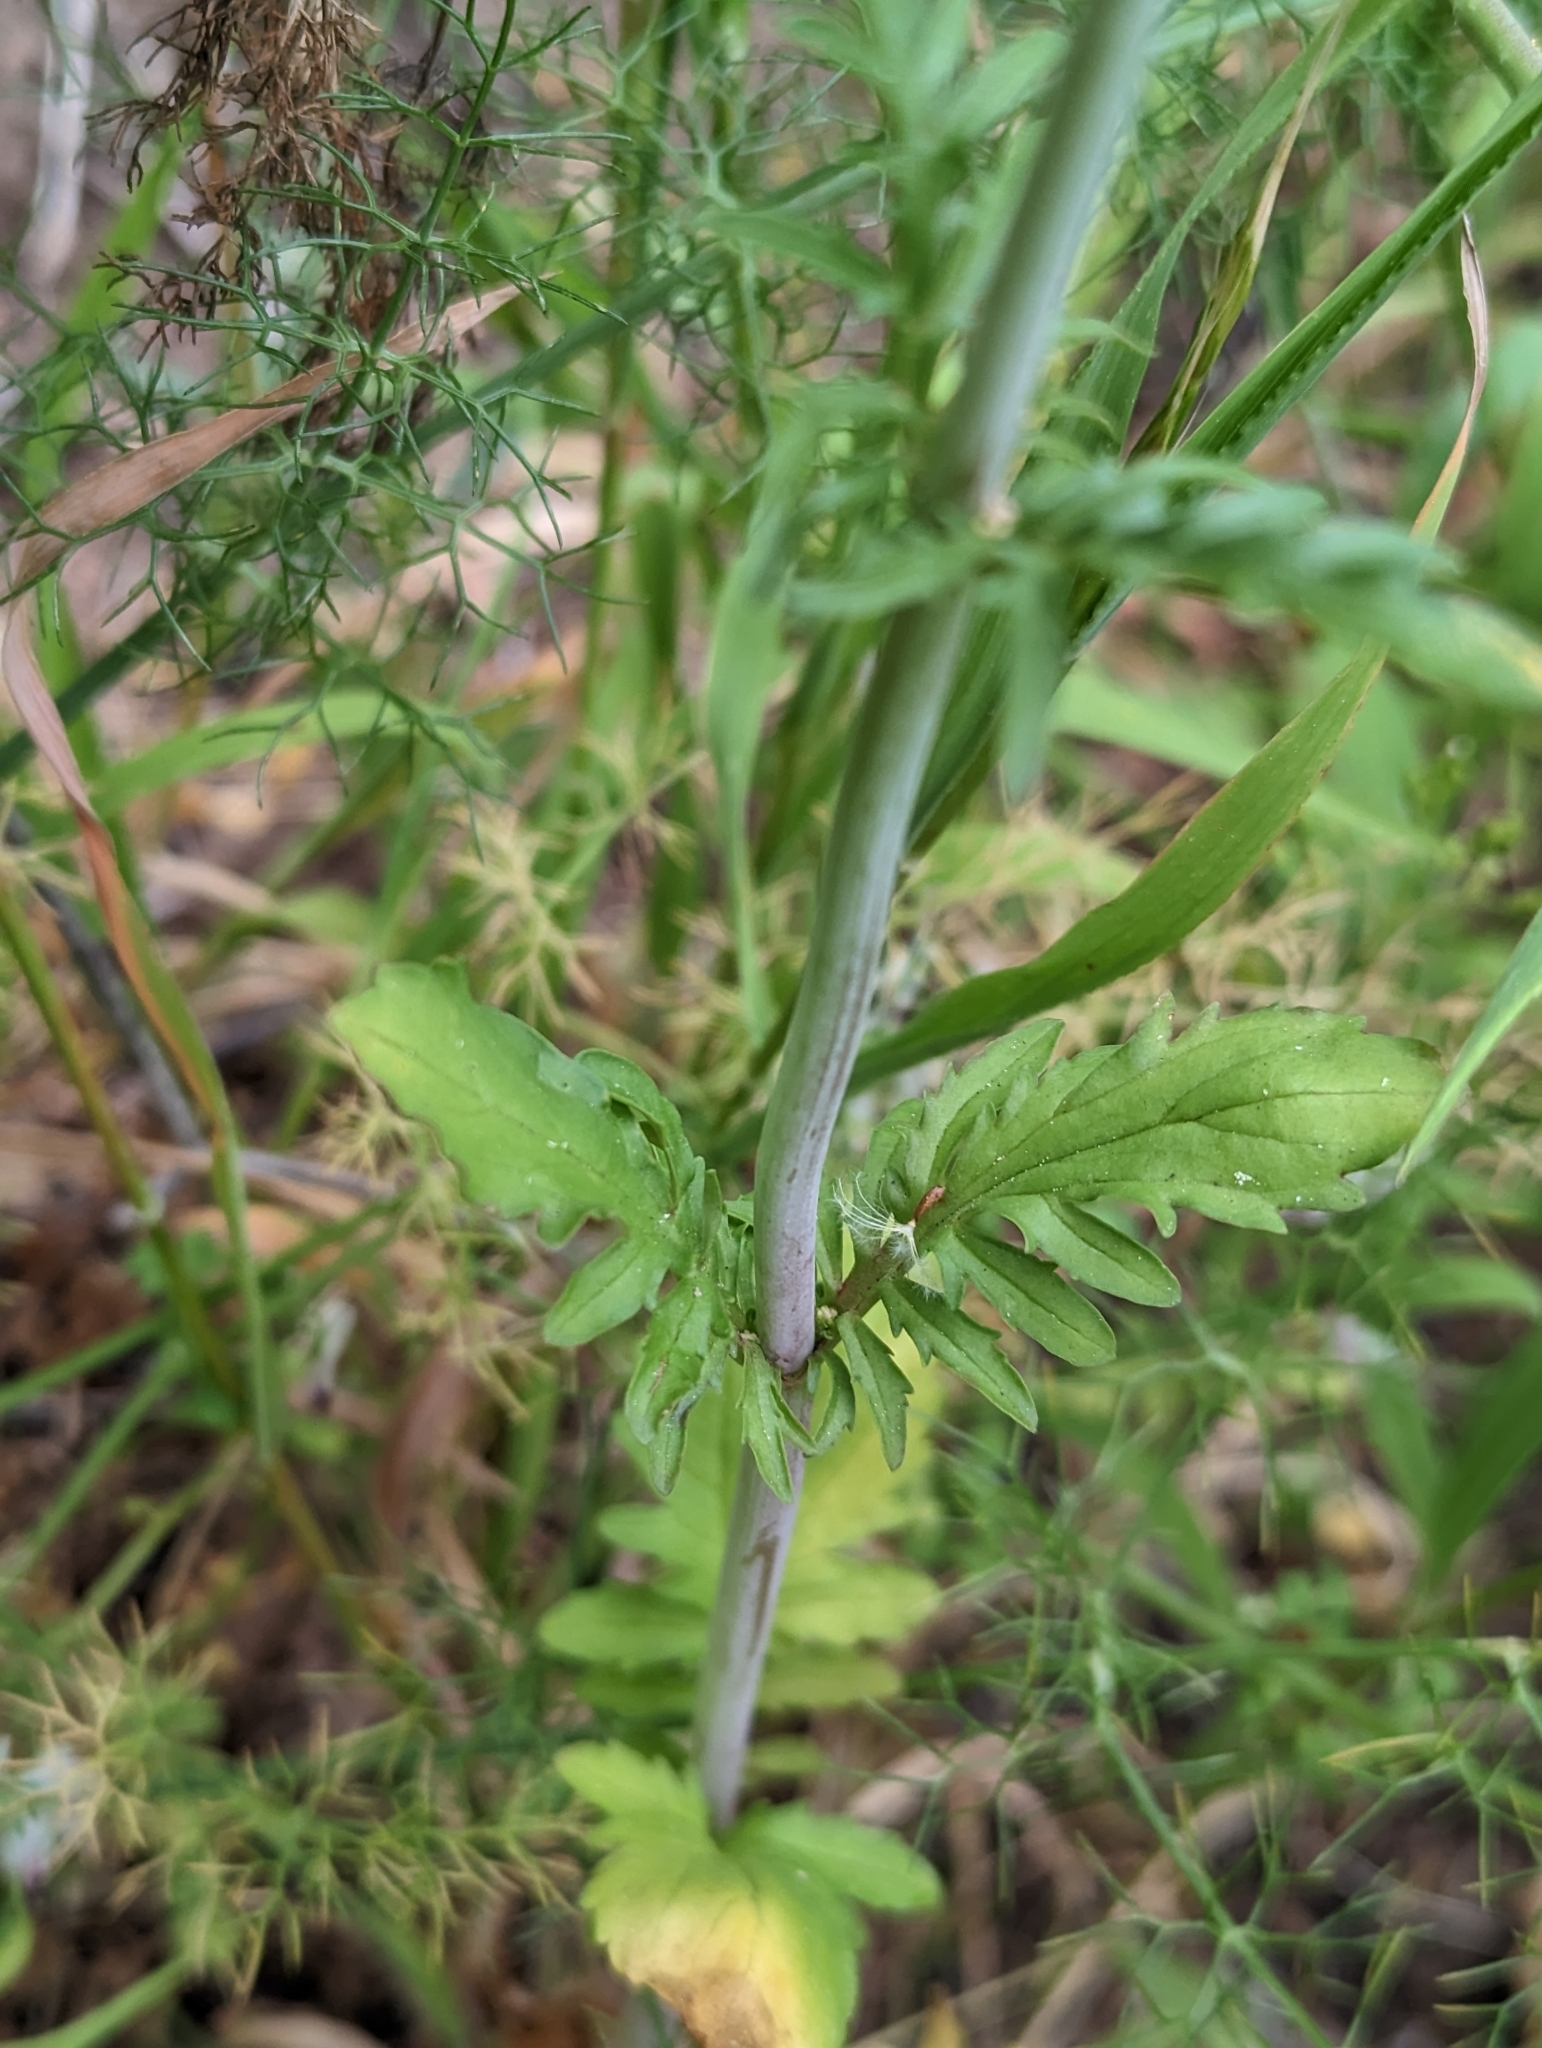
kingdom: Plantae
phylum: Tracheophyta
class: Magnoliopsida
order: Dipsacales
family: Caprifoliaceae
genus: Centranthus
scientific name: Centranthus calcitrapae
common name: Annual valerian
